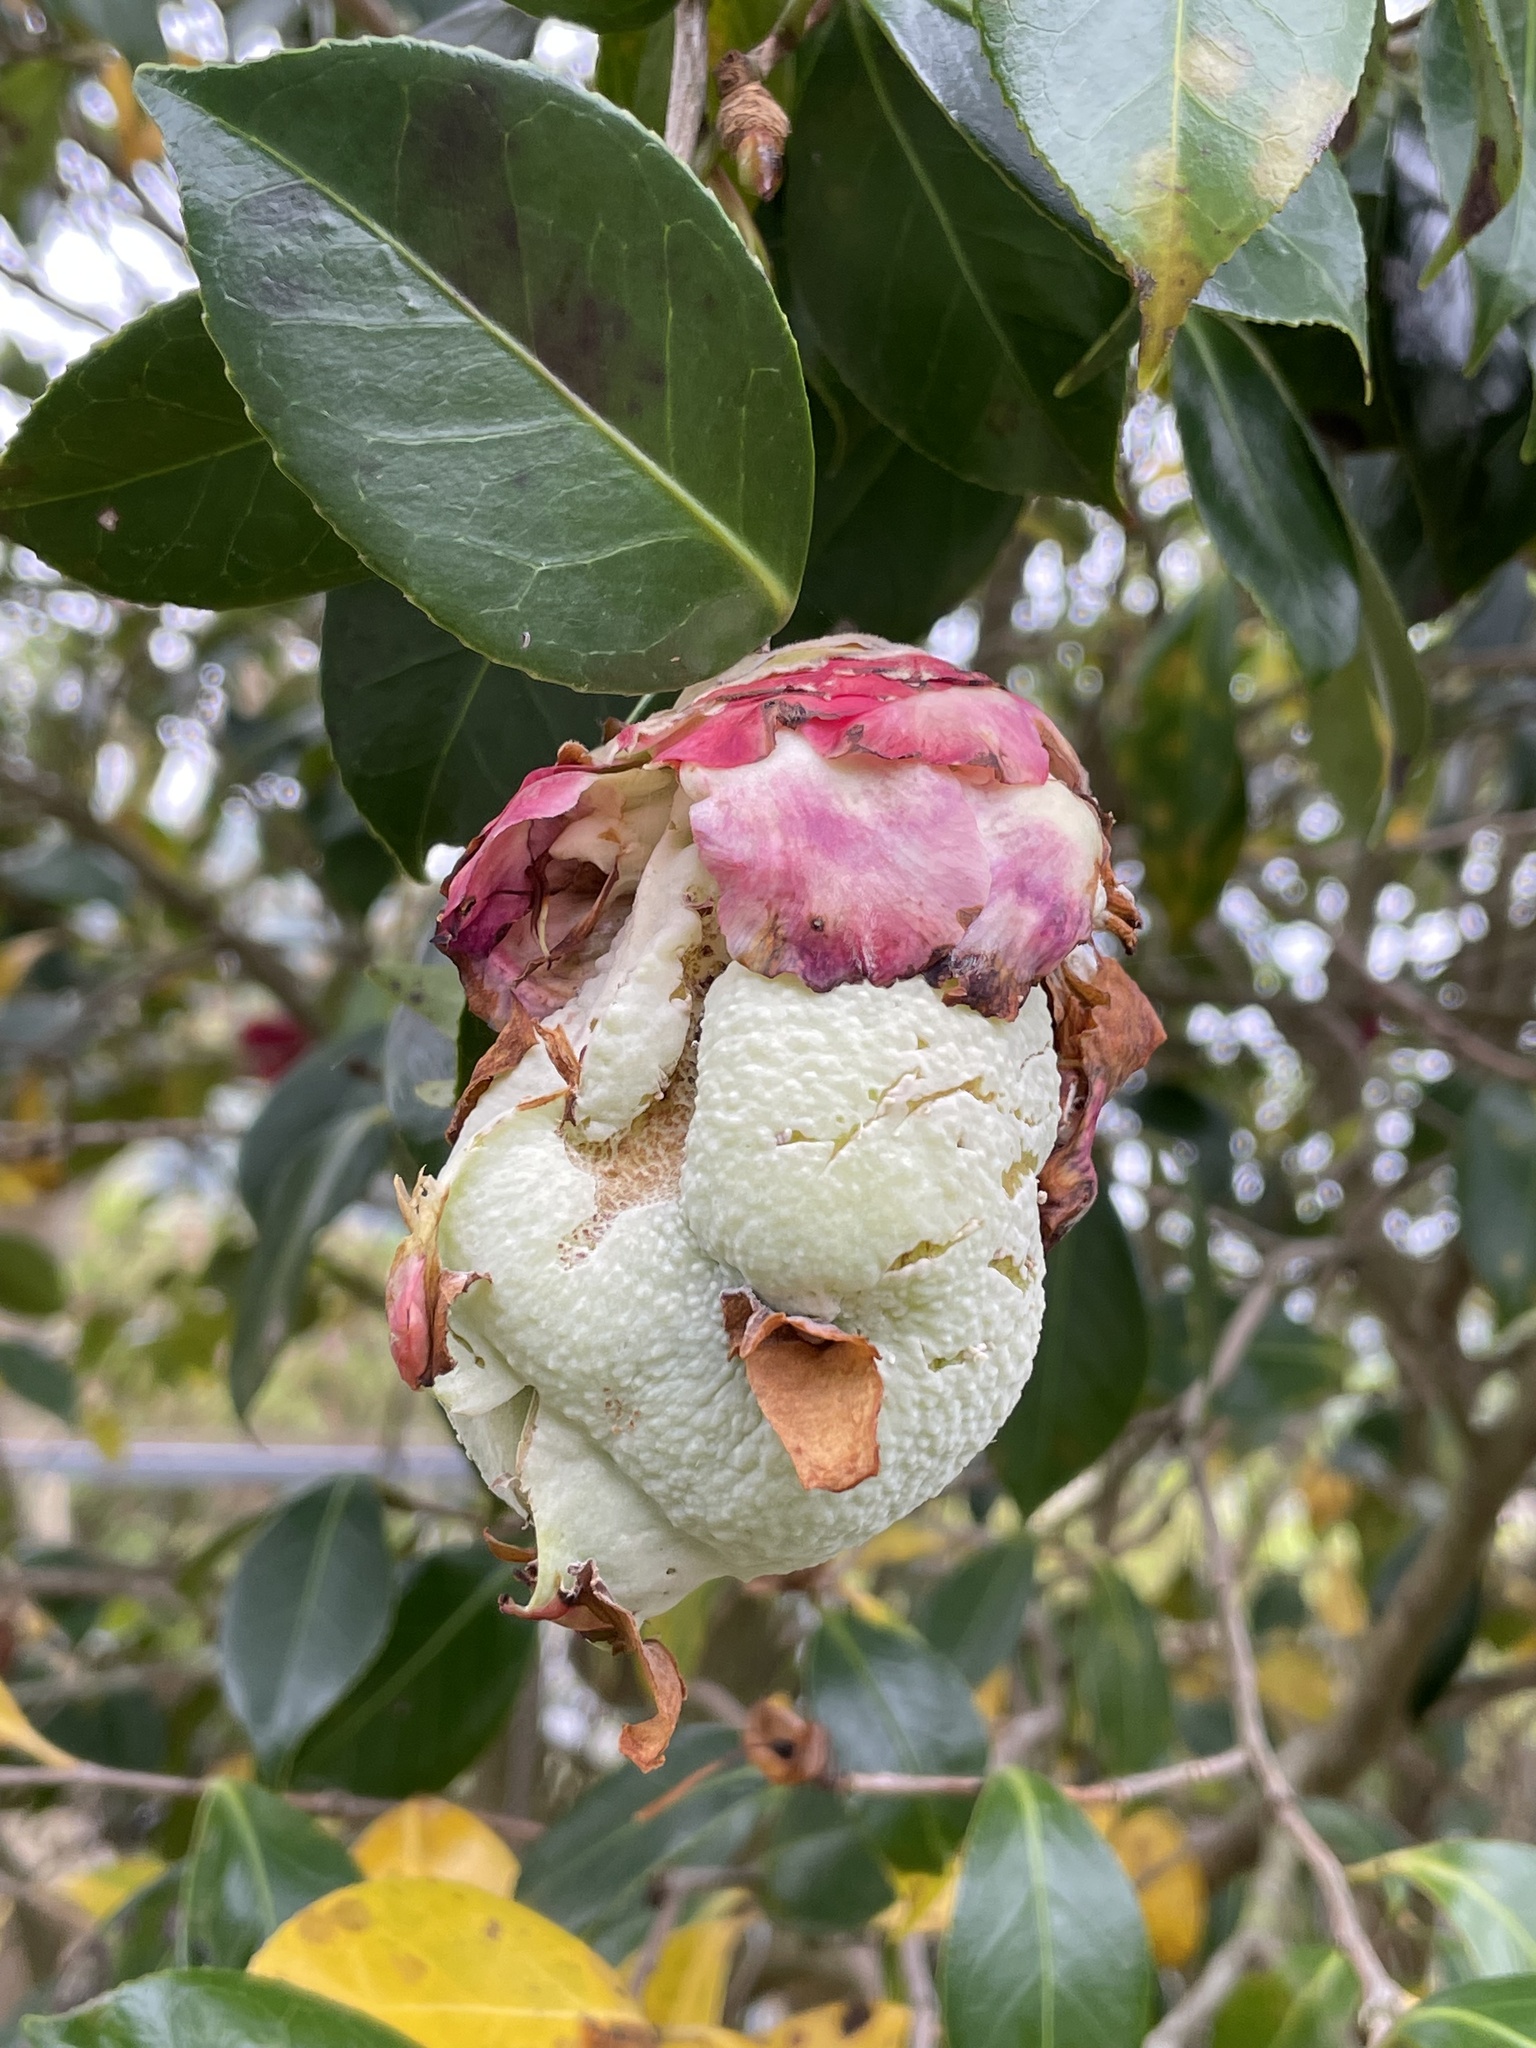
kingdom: Fungi
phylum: Basidiomycota
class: Exobasidiomycetes
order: Exobasidiales
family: Exobasidiaceae
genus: Exobasidium
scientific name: Exobasidium camelliae
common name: Camellia gall
